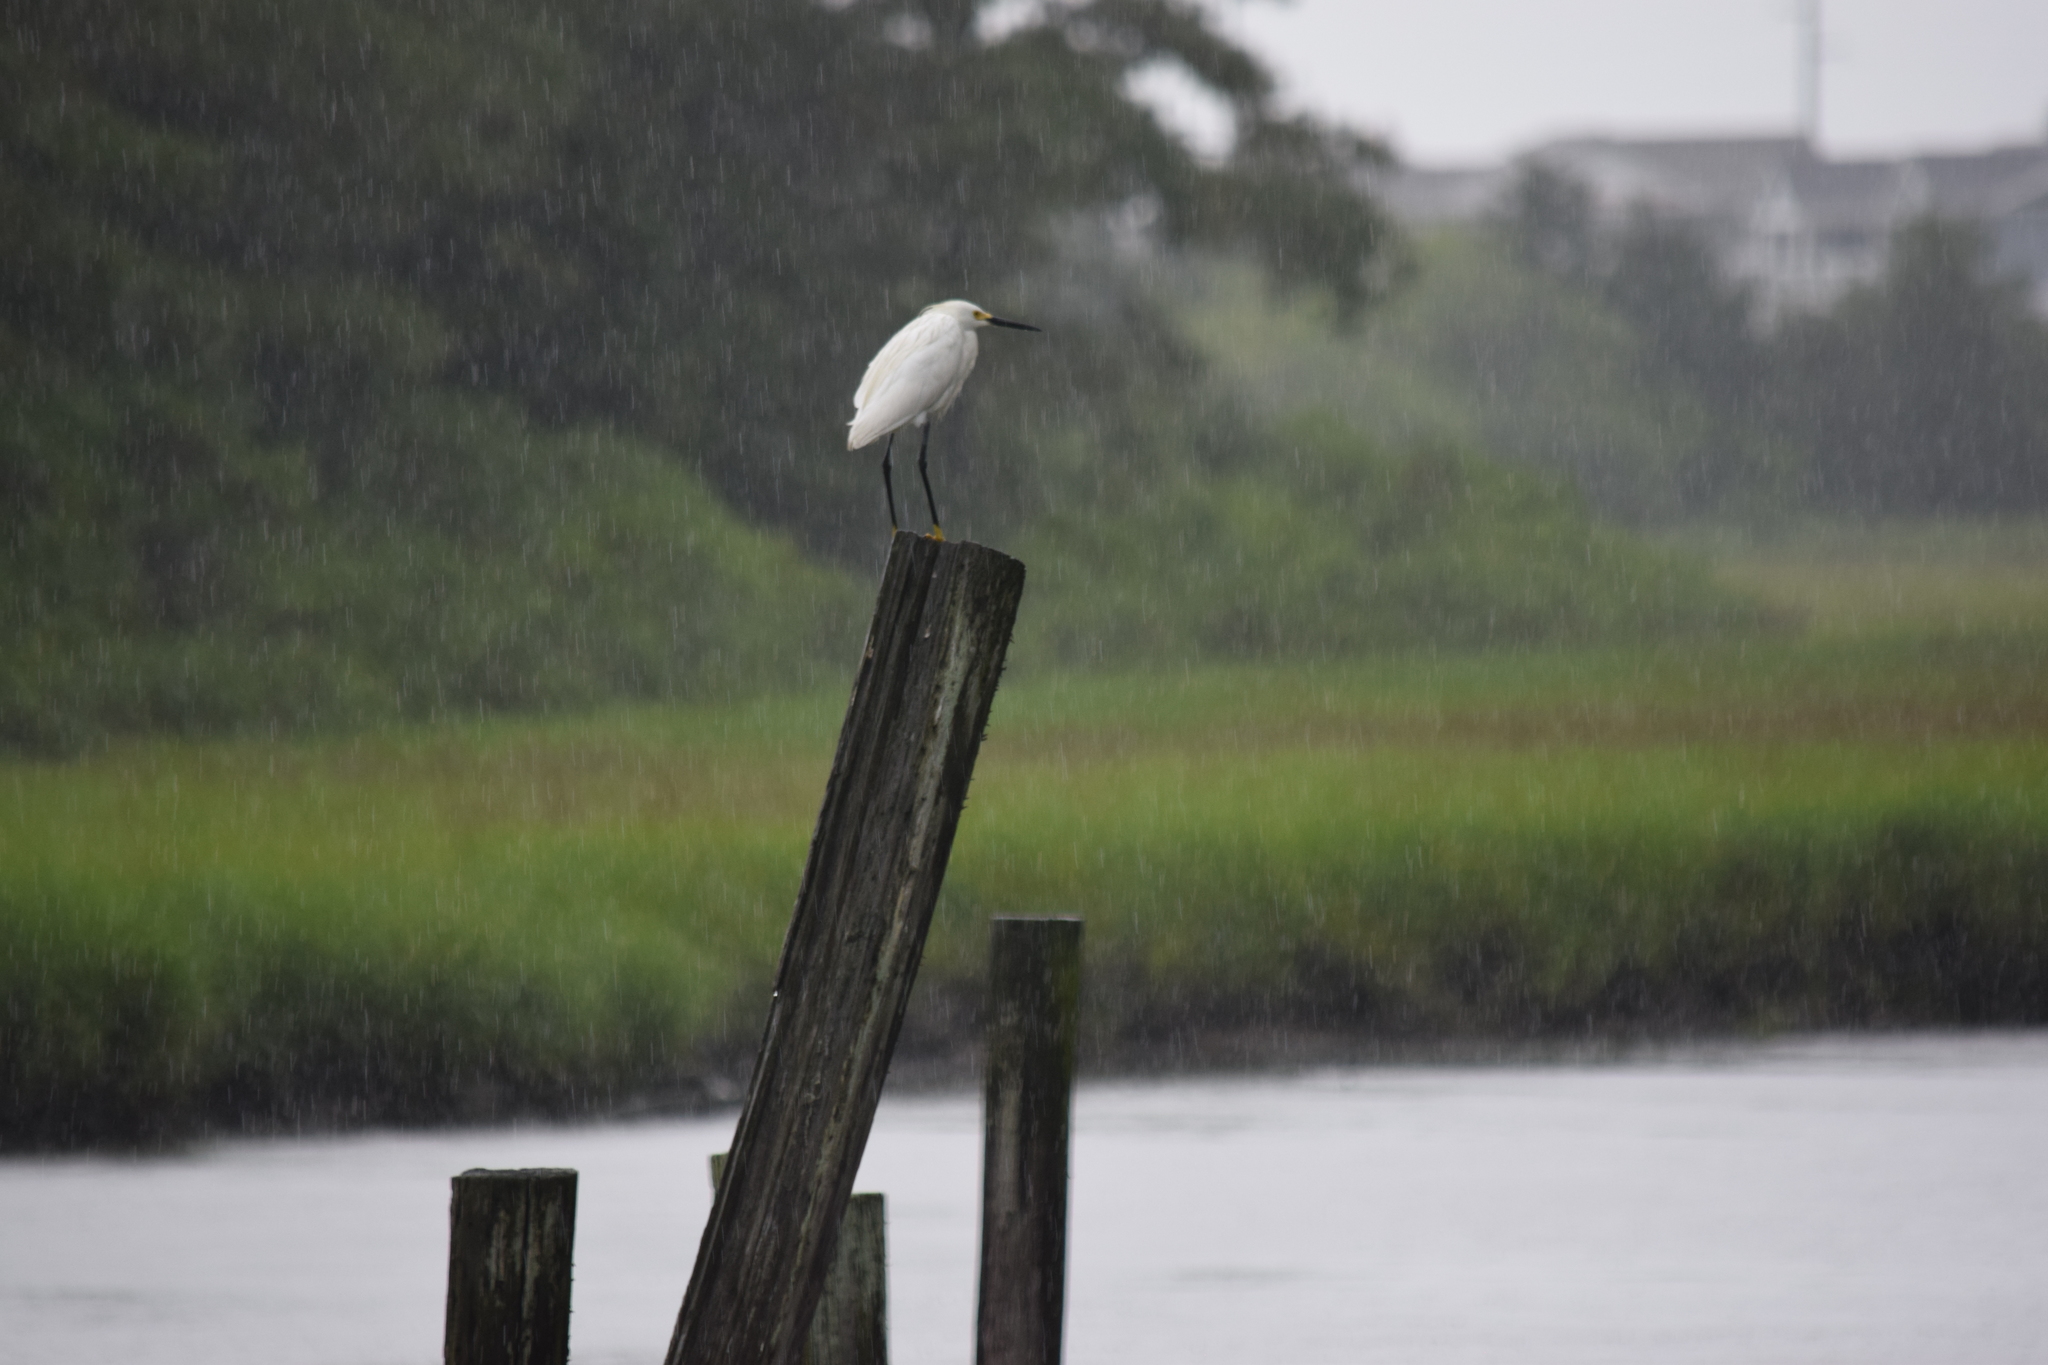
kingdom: Animalia
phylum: Chordata
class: Aves
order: Pelecaniformes
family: Ardeidae
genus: Egretta
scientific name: Egretta thula
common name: Snowy egret
